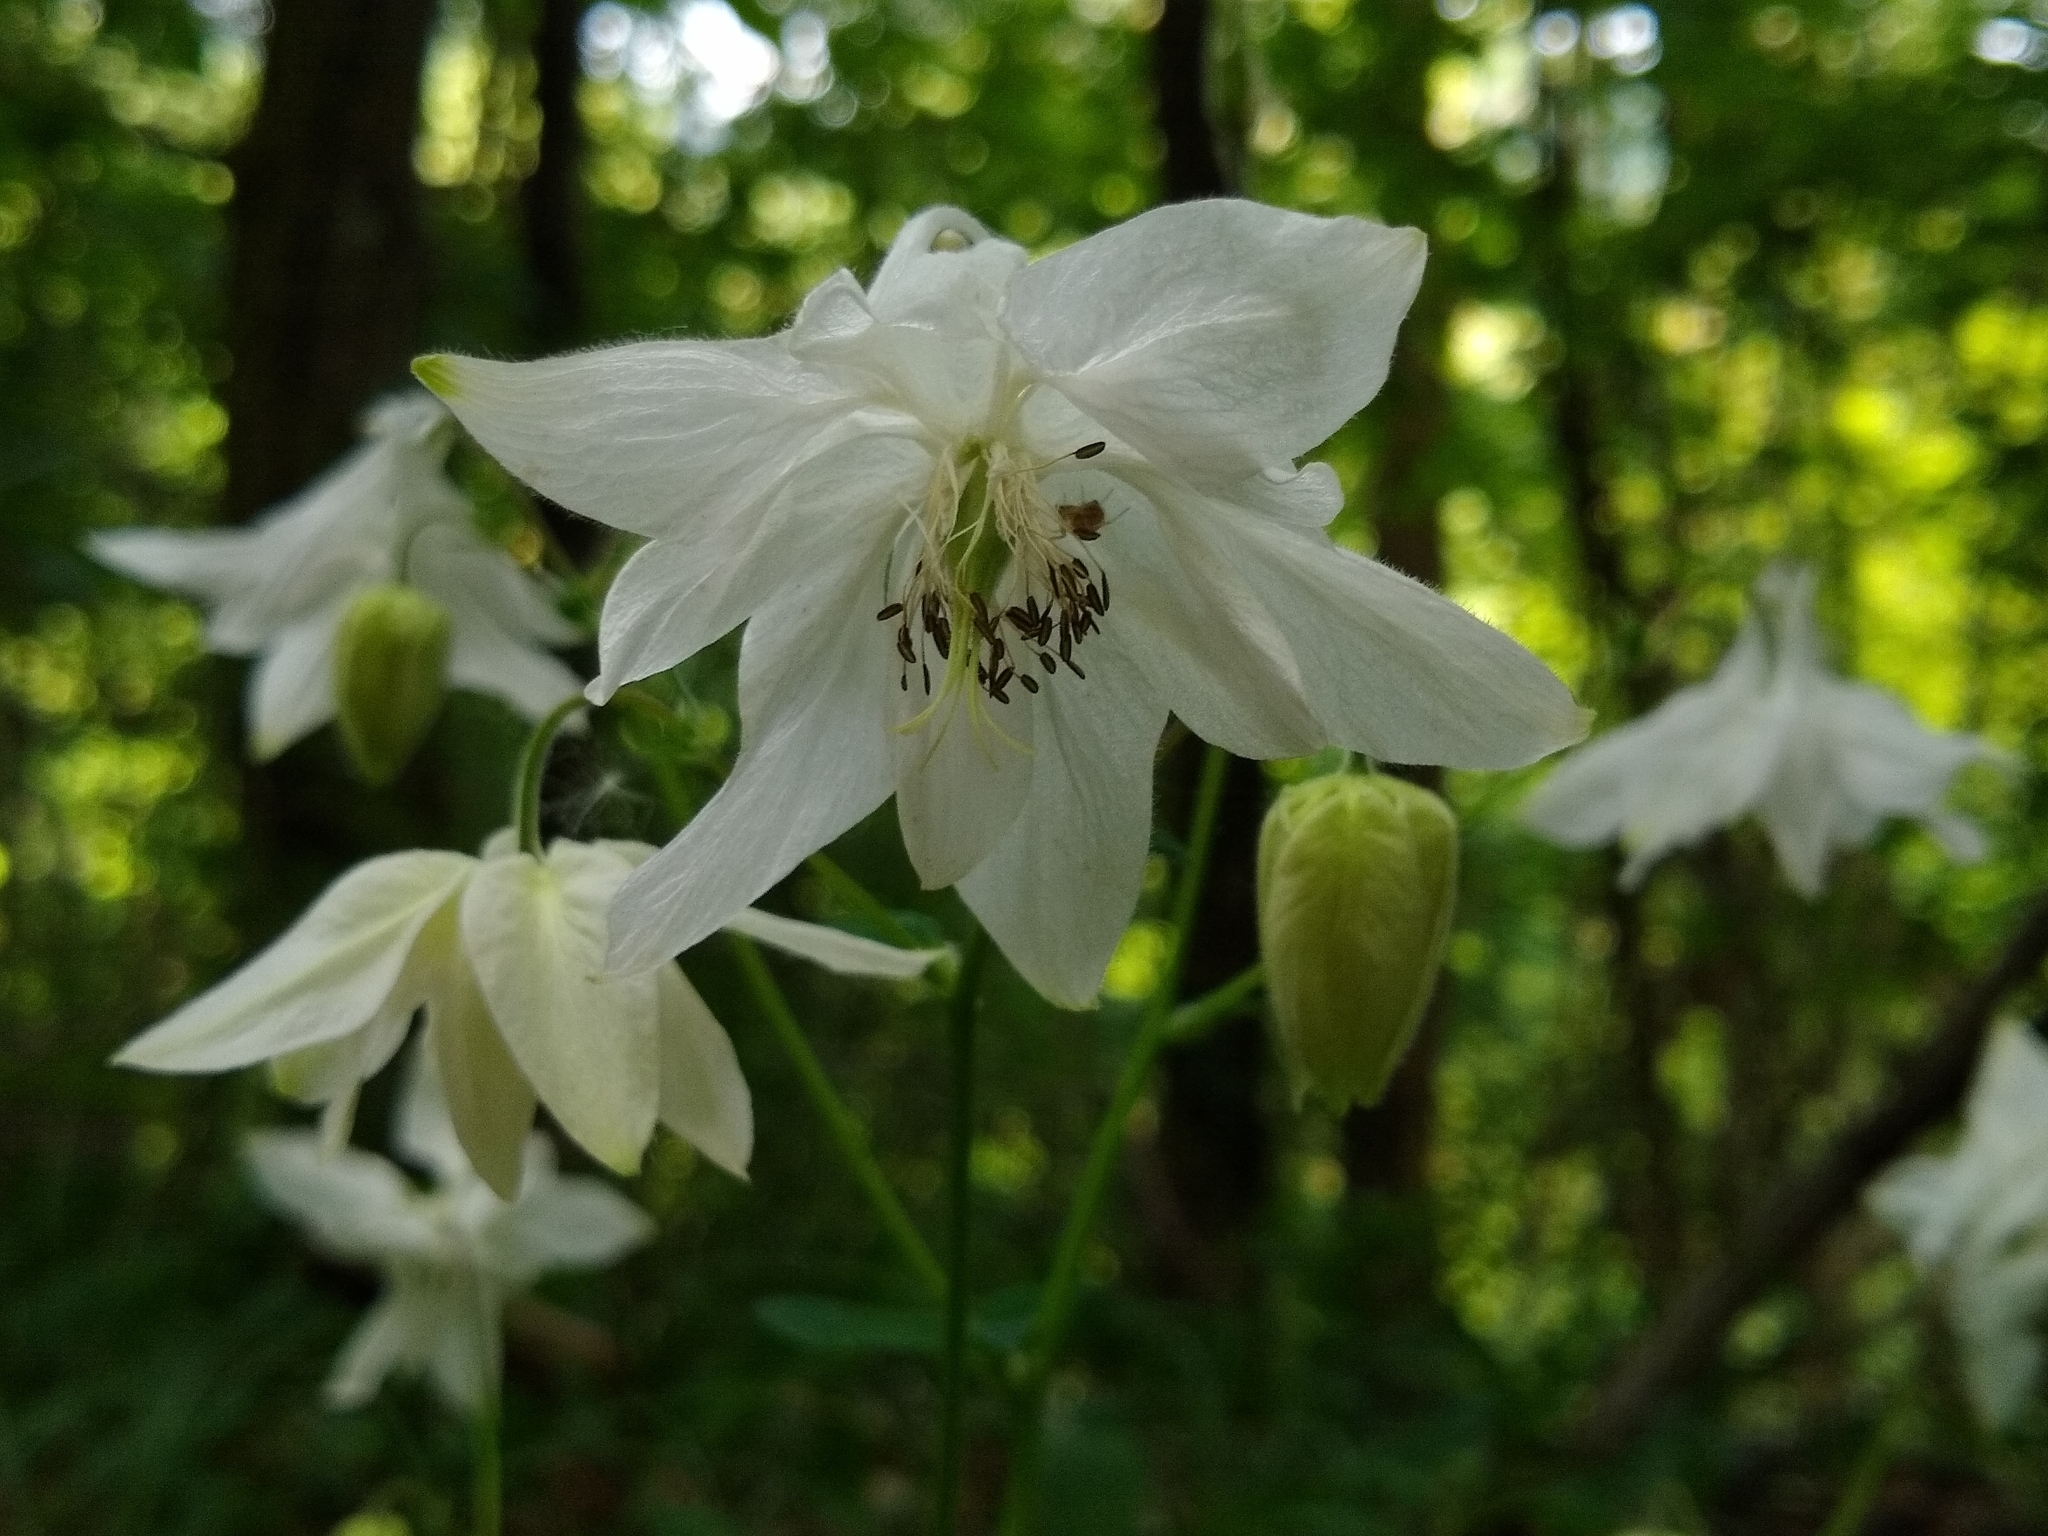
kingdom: Plantae
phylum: Tracheophyta
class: Magnoliopsida
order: Ranunculales
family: Ranunculaceae
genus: Aquilegia
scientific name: Aquilegia vulgaris
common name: Columbine
